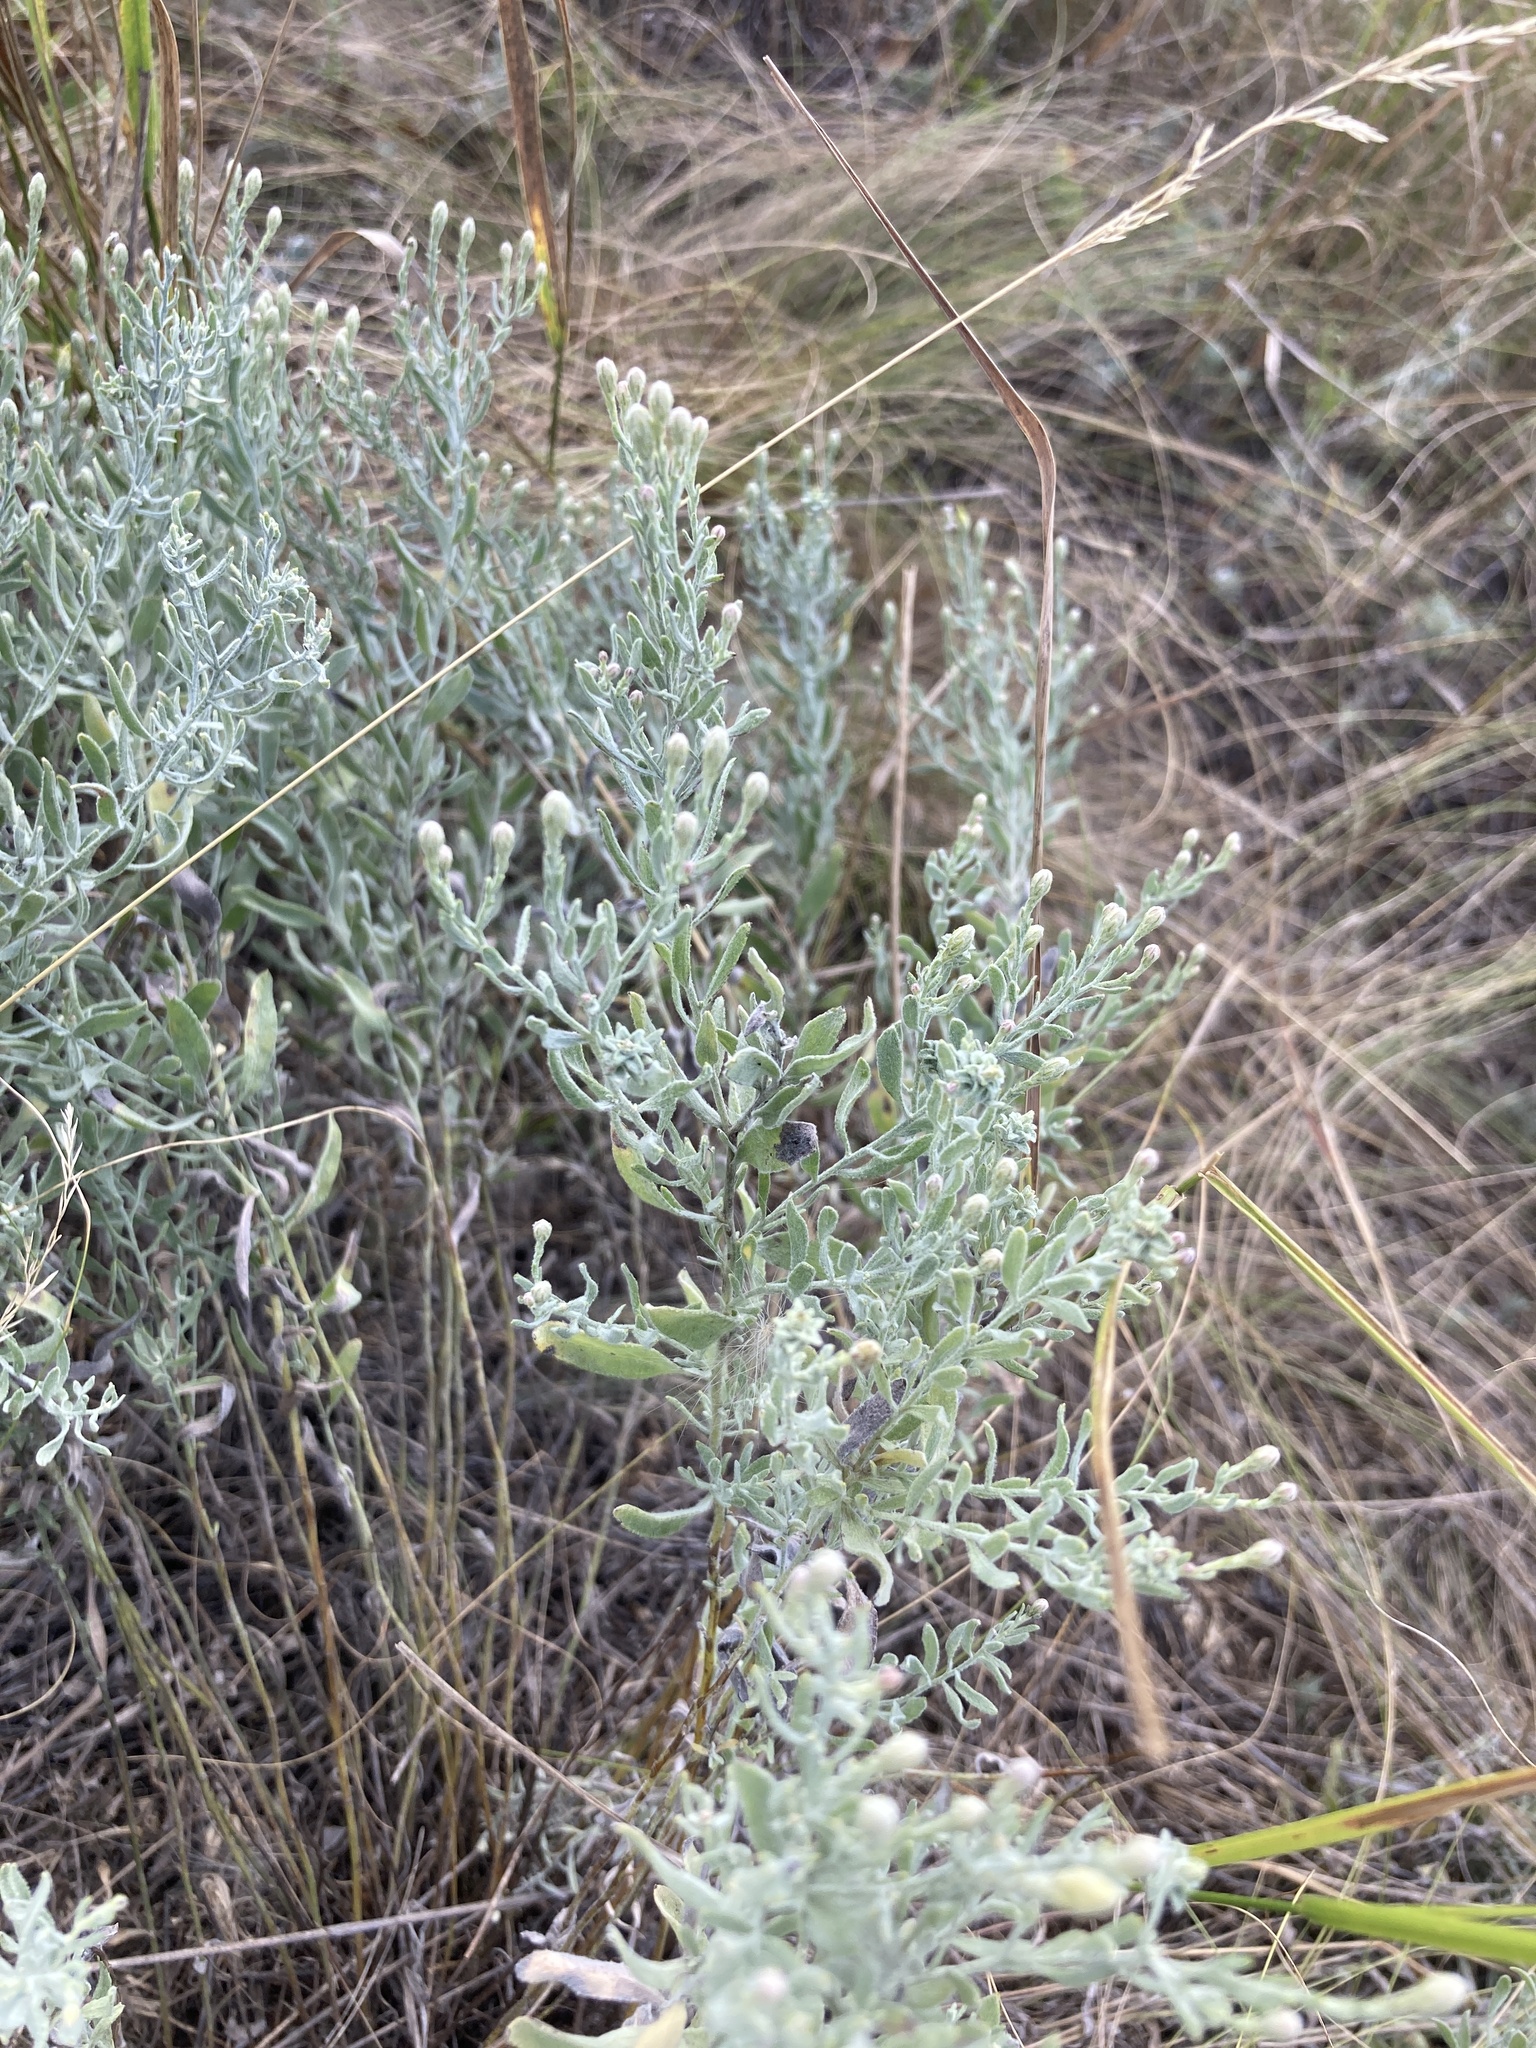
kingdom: Plantae
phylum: Tracheophyta
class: Magnoliopsida
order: Asterales
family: Asteraceae
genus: Galatella
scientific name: Galatella villosa
